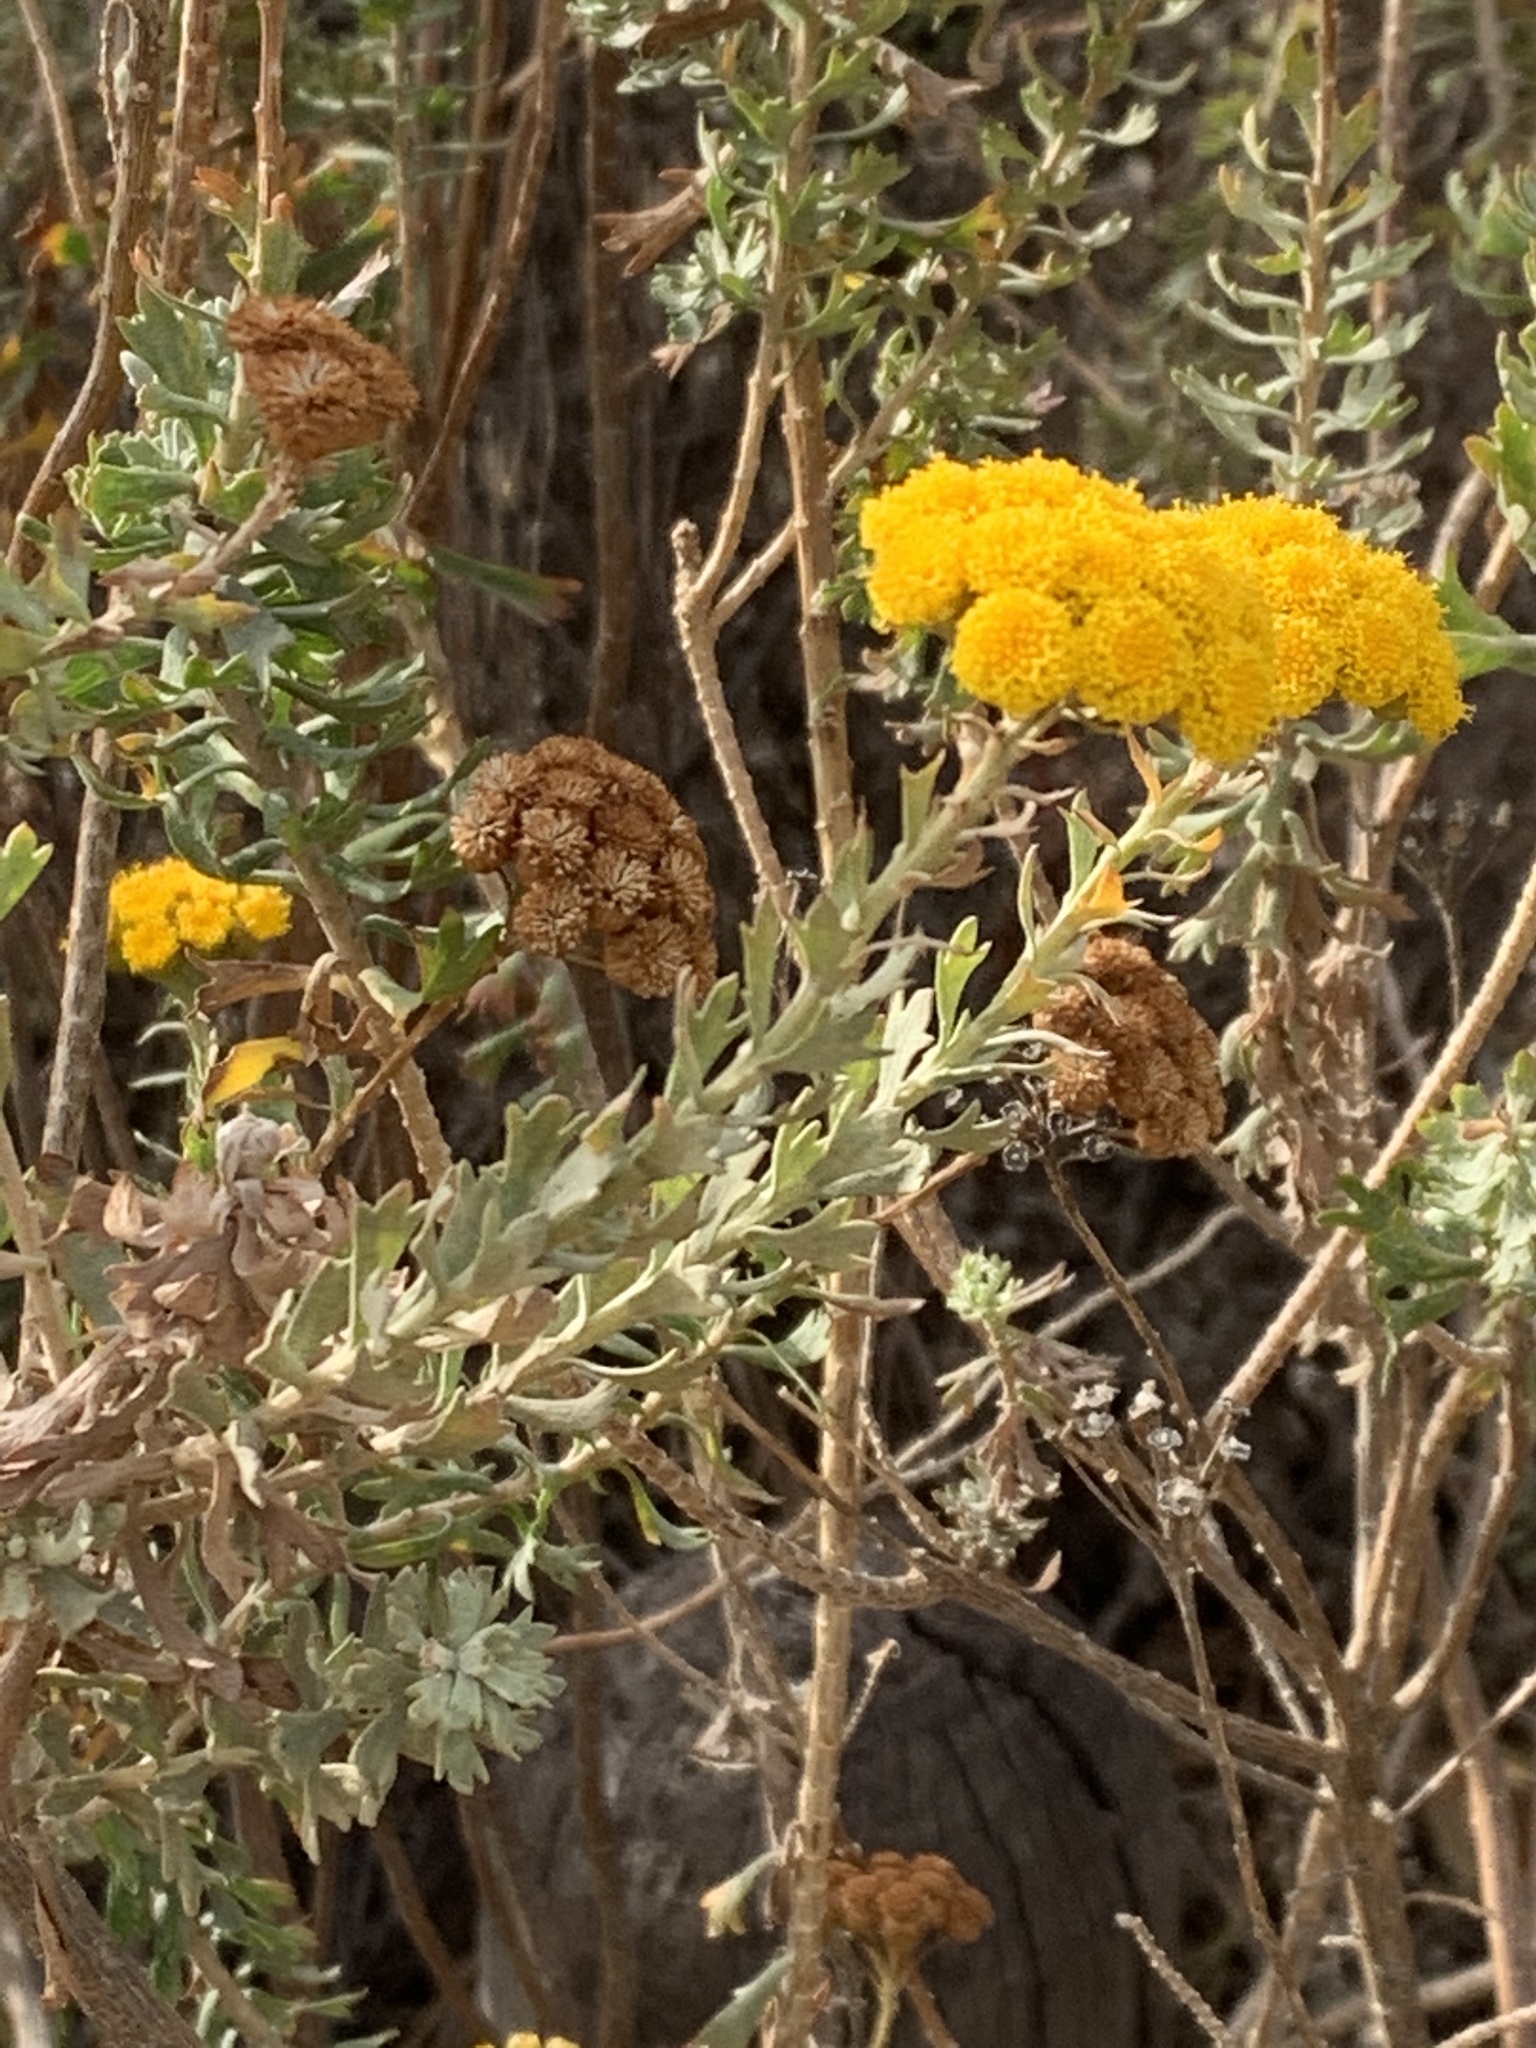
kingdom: Plantae
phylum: Tracheophyta
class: Magnoliopsida
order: Asterales
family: Asteraceae
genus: Athanasia
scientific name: Athanasia trifurcata
